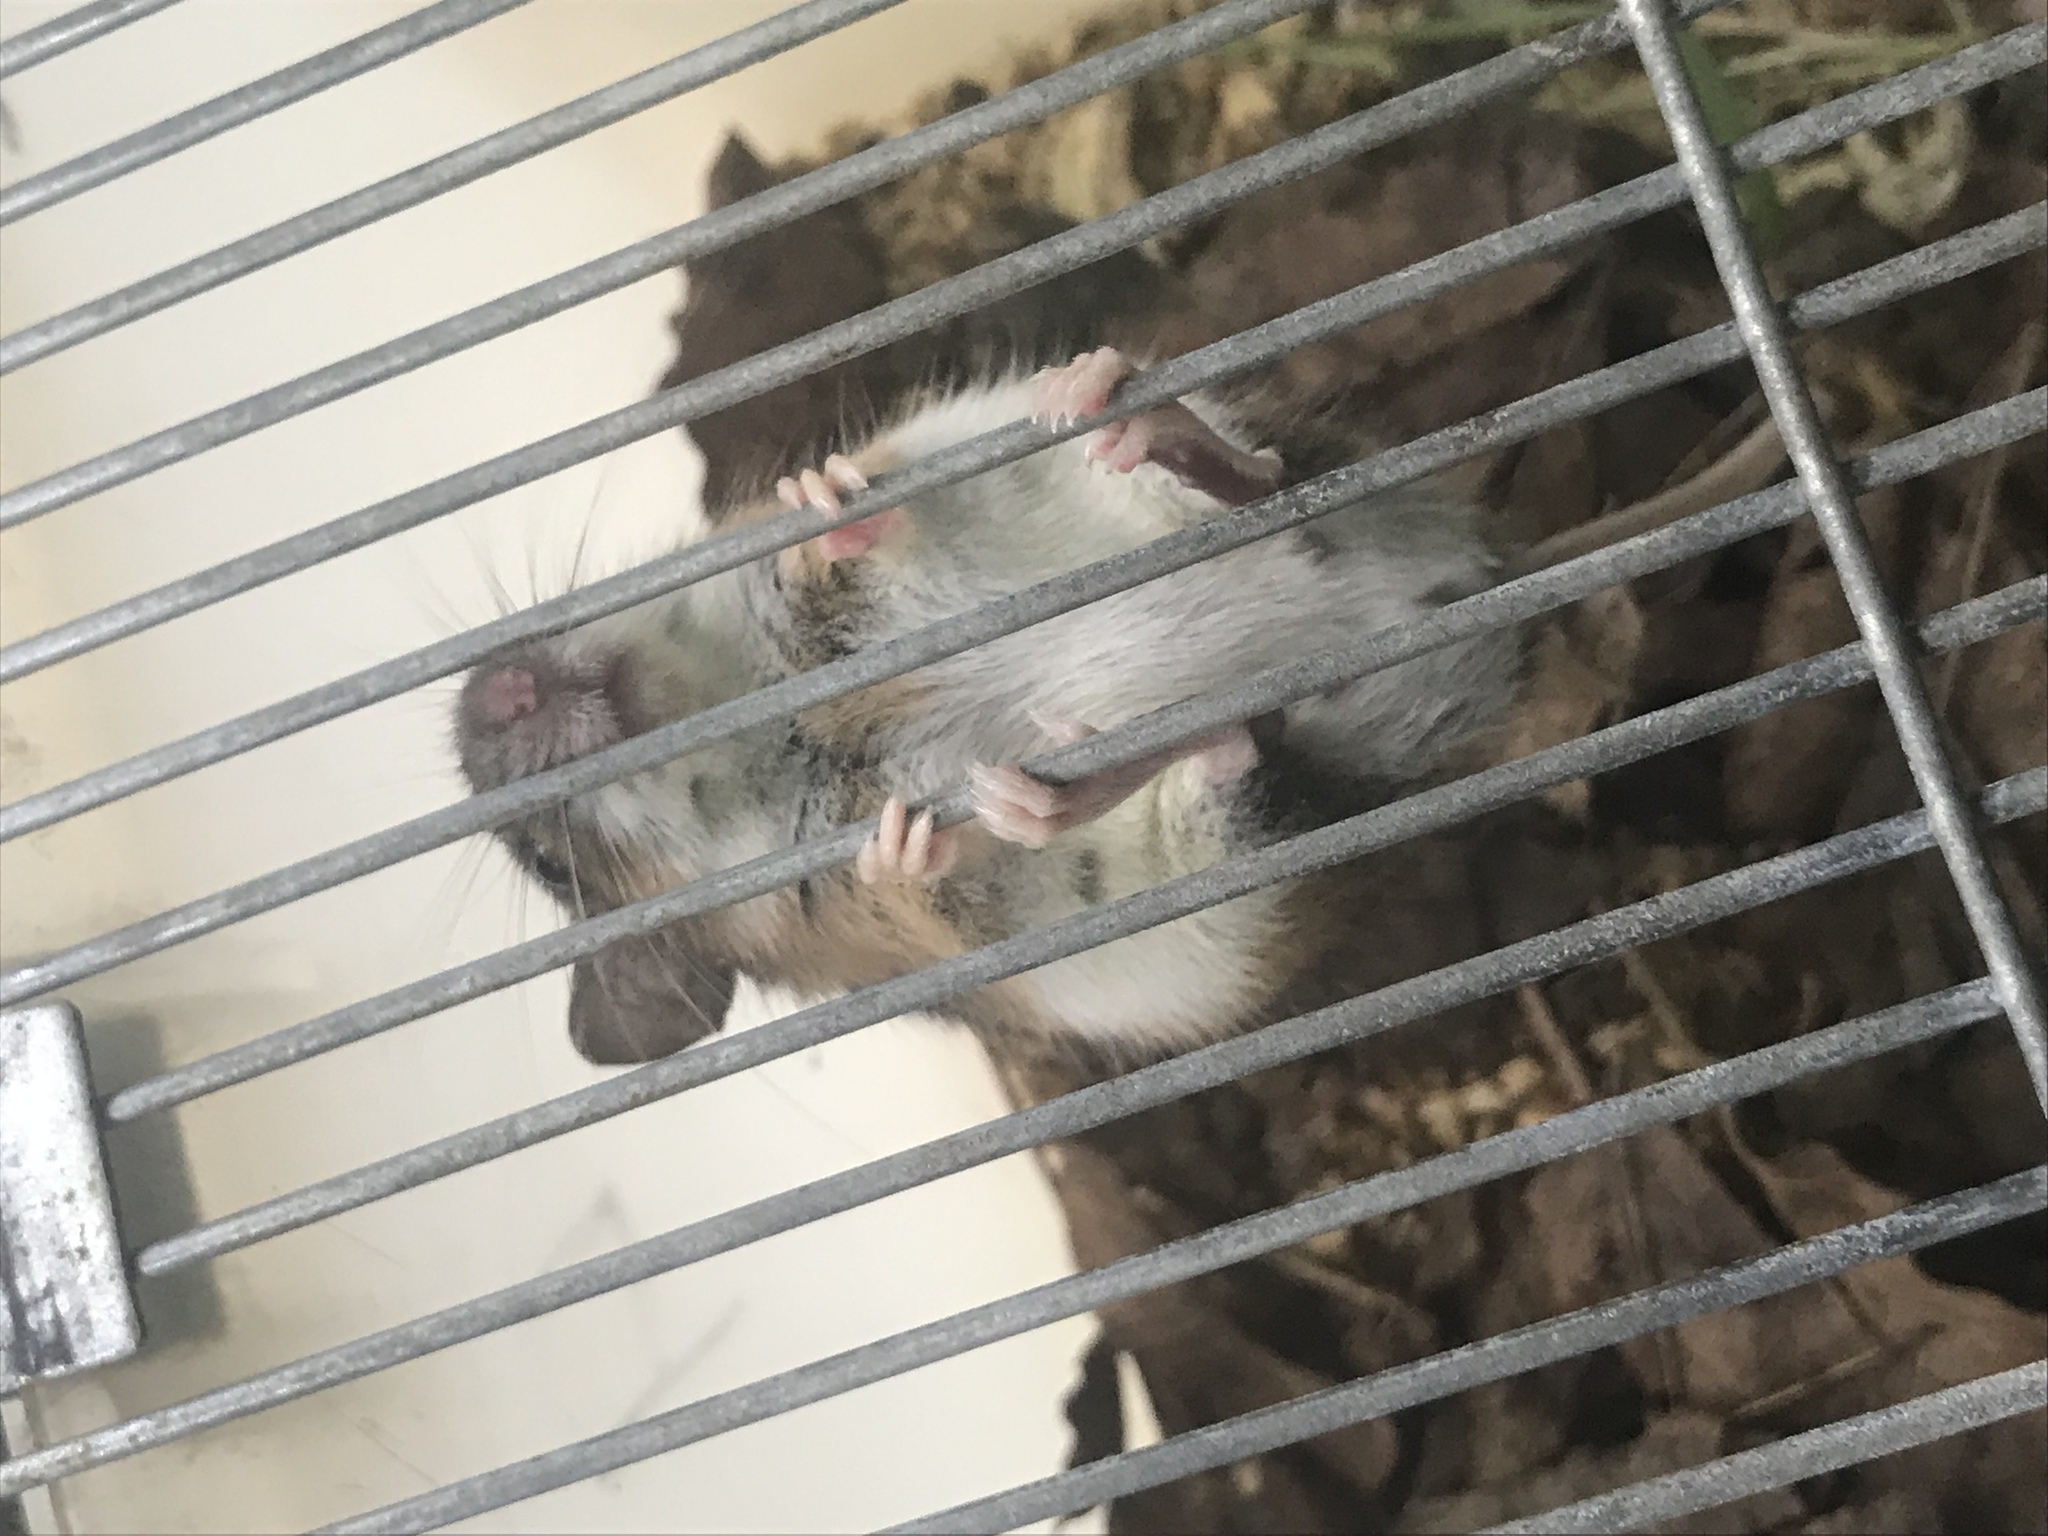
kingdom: Animalia
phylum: Chordata
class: Mammalia
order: Rodentia
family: Muridae
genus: Apodemus
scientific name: Apodemus flavicollis
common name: Yellow-necked field mouse
